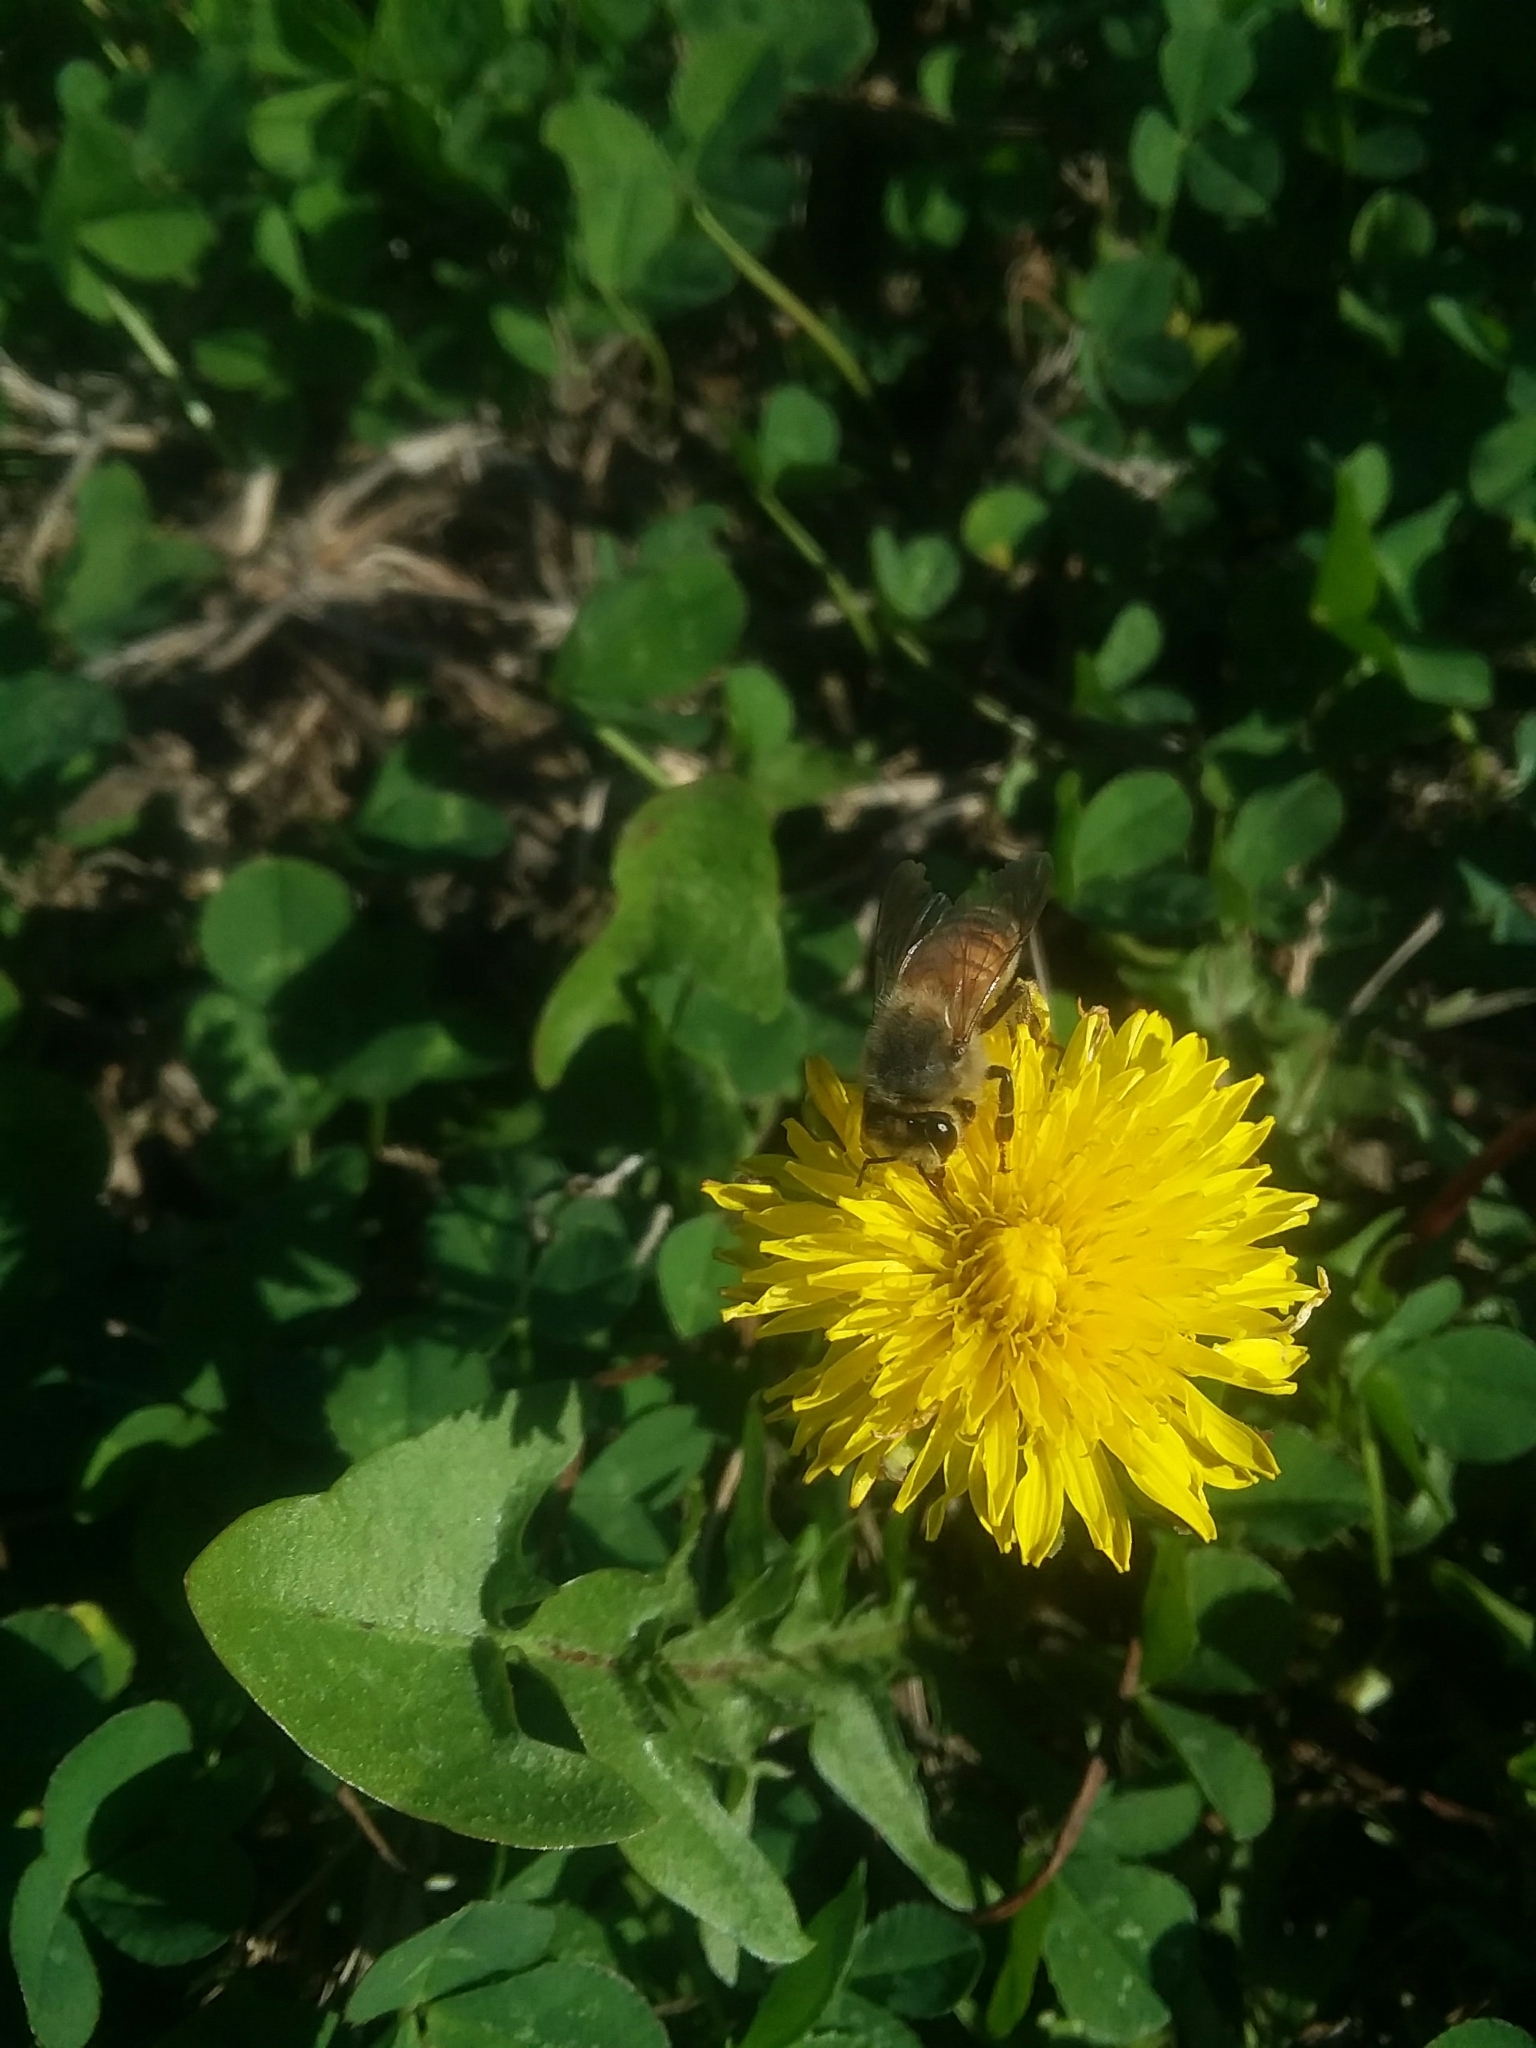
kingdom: Animalia
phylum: Arthropoda
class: Insecta
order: Hymenoptera
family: Apidae
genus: Apis
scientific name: Apis mellifera
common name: Honey bee
